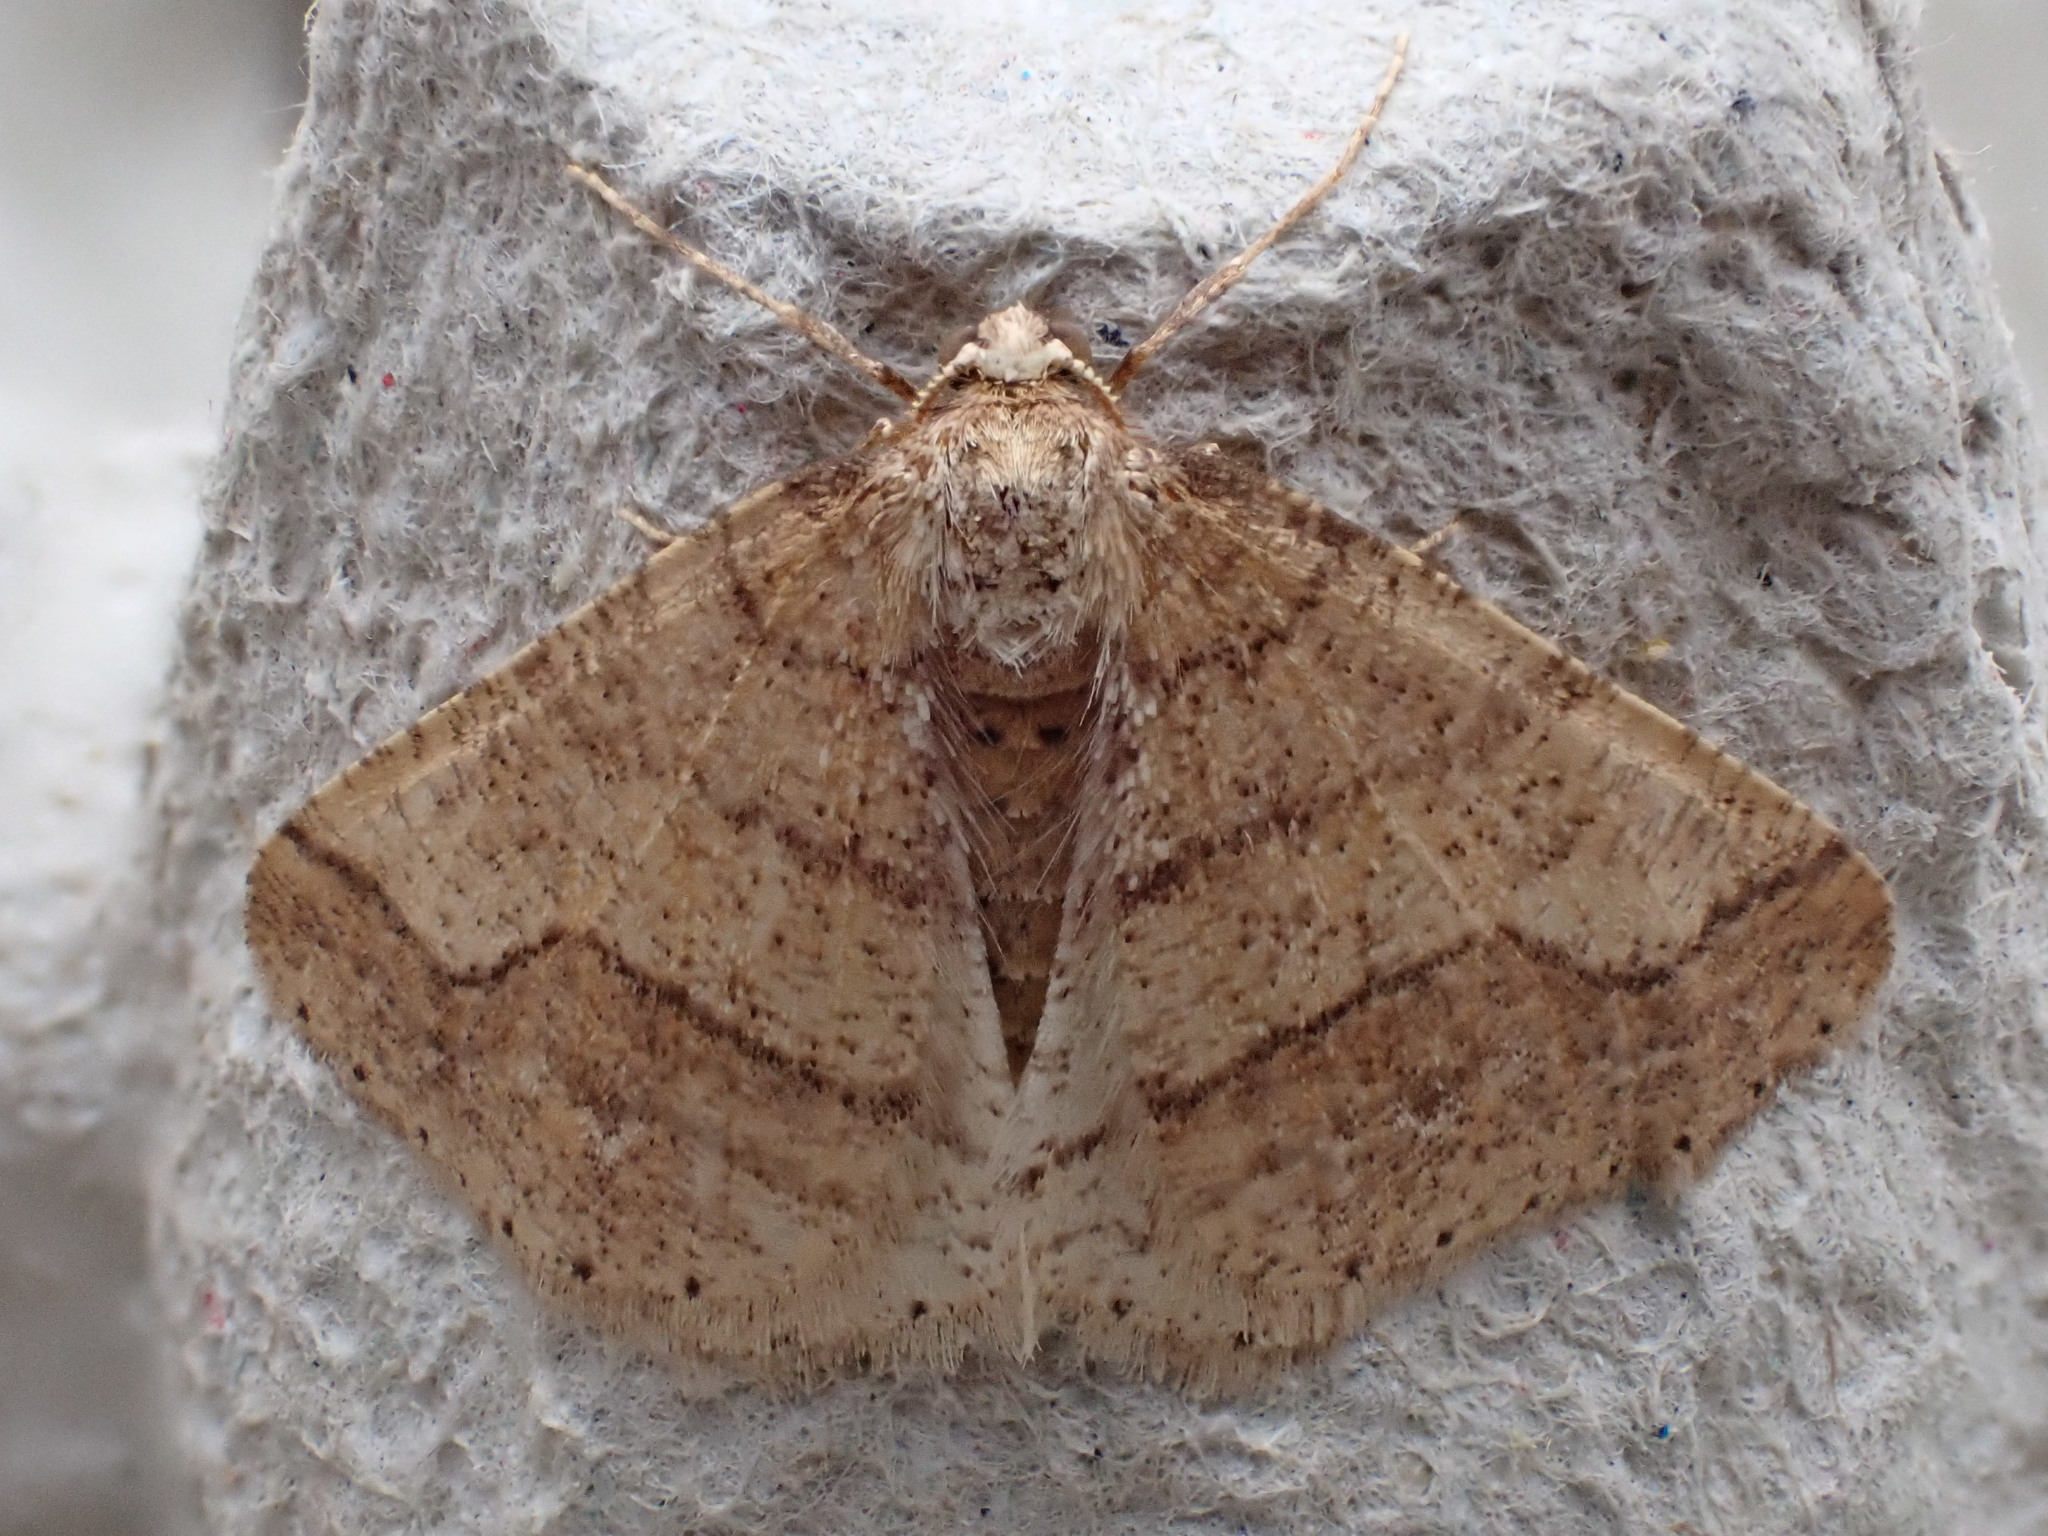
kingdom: Animalia
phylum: Arthropoda
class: Insecta
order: Lepidoptera
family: Geometridae
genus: Agriopis
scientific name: Agriopis marginaria
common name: Dotted border
